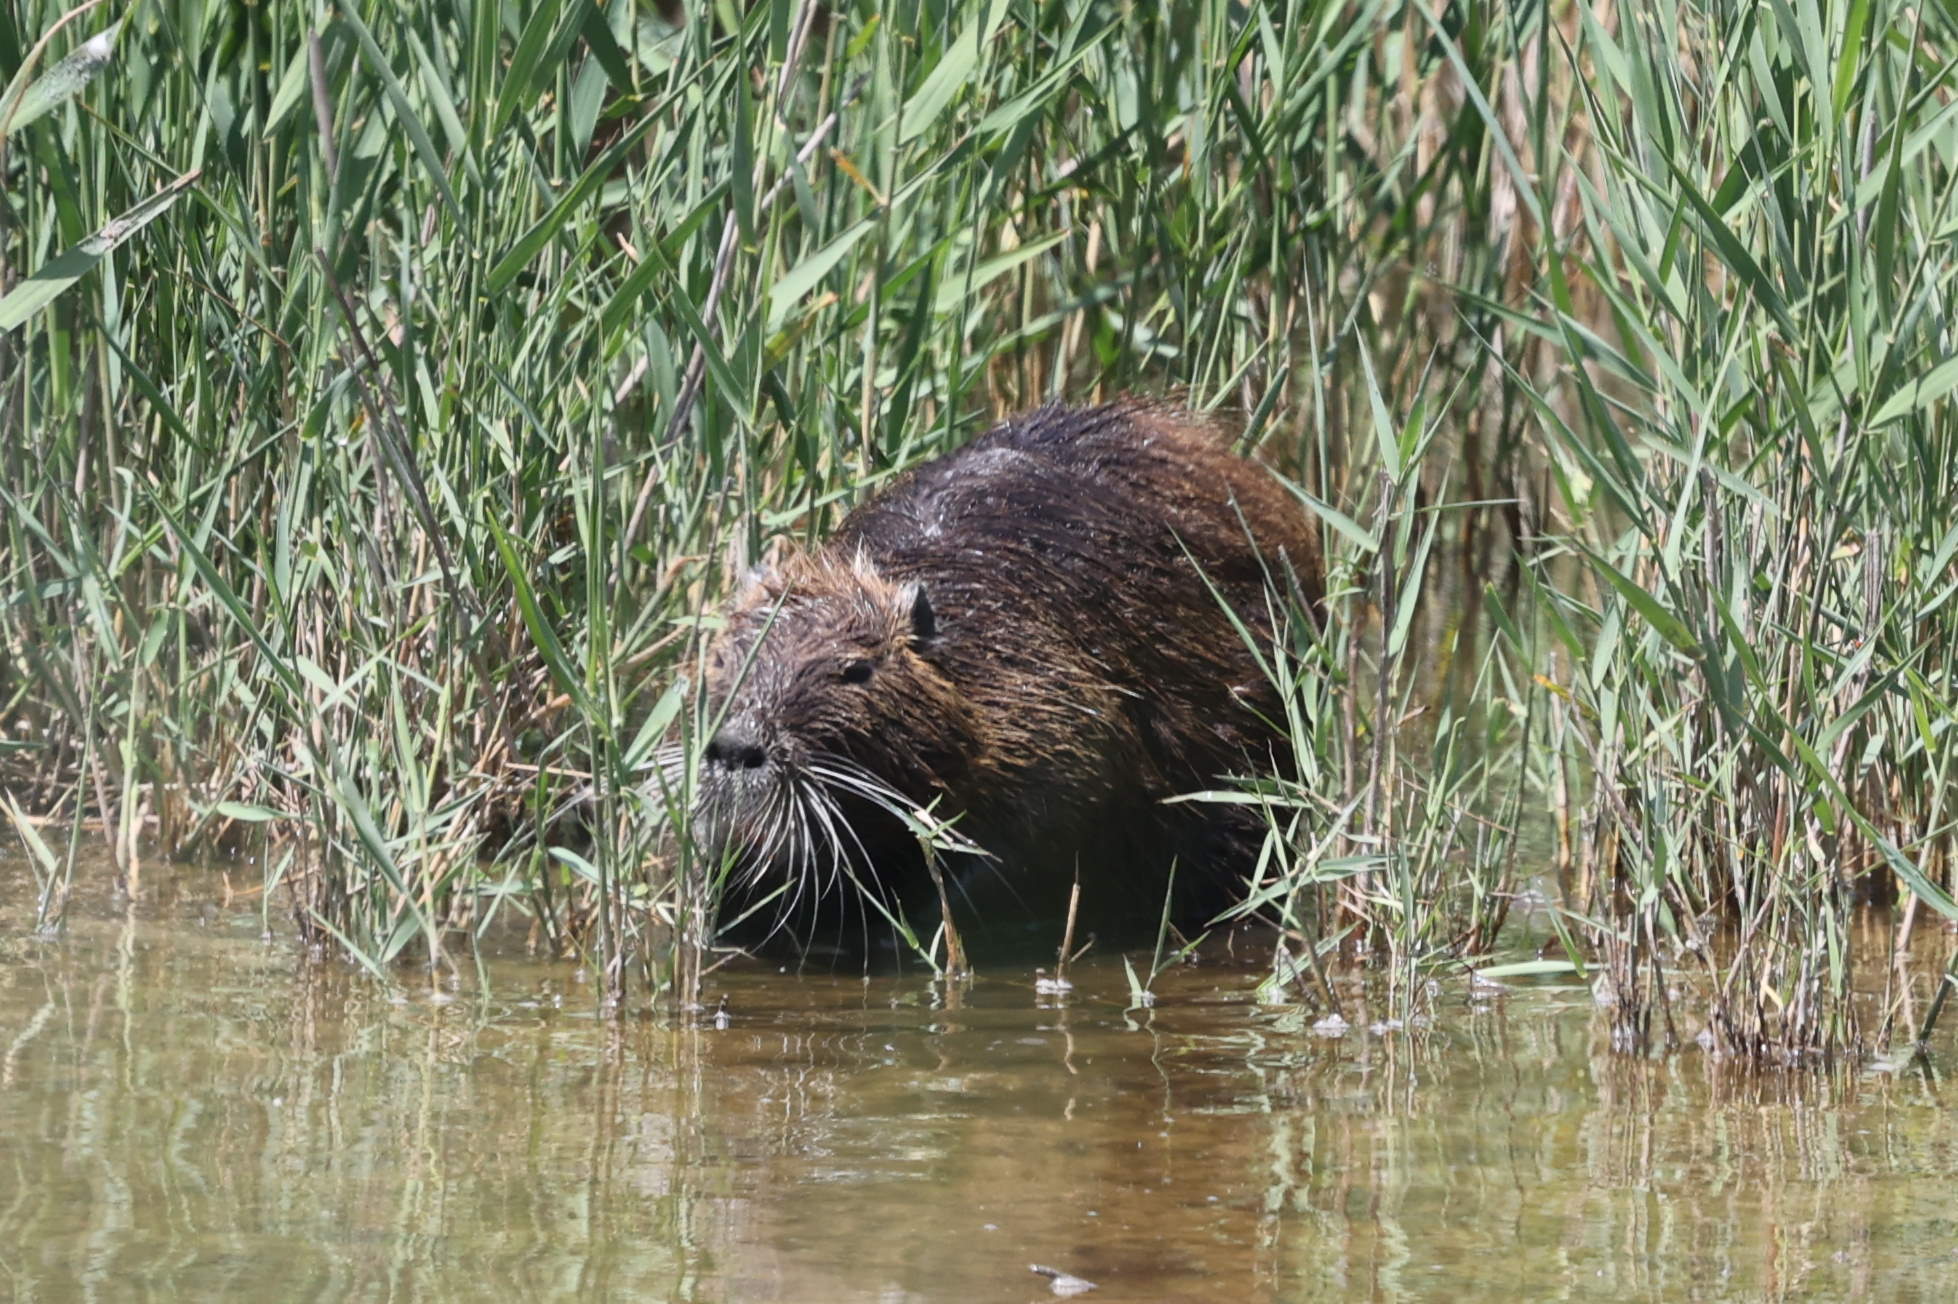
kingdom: Animalia
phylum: Chordata
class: Mammalia
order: Rodentia
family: Myocastoridae
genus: Myocastor
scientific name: Myocastor coypus
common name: Coypu
